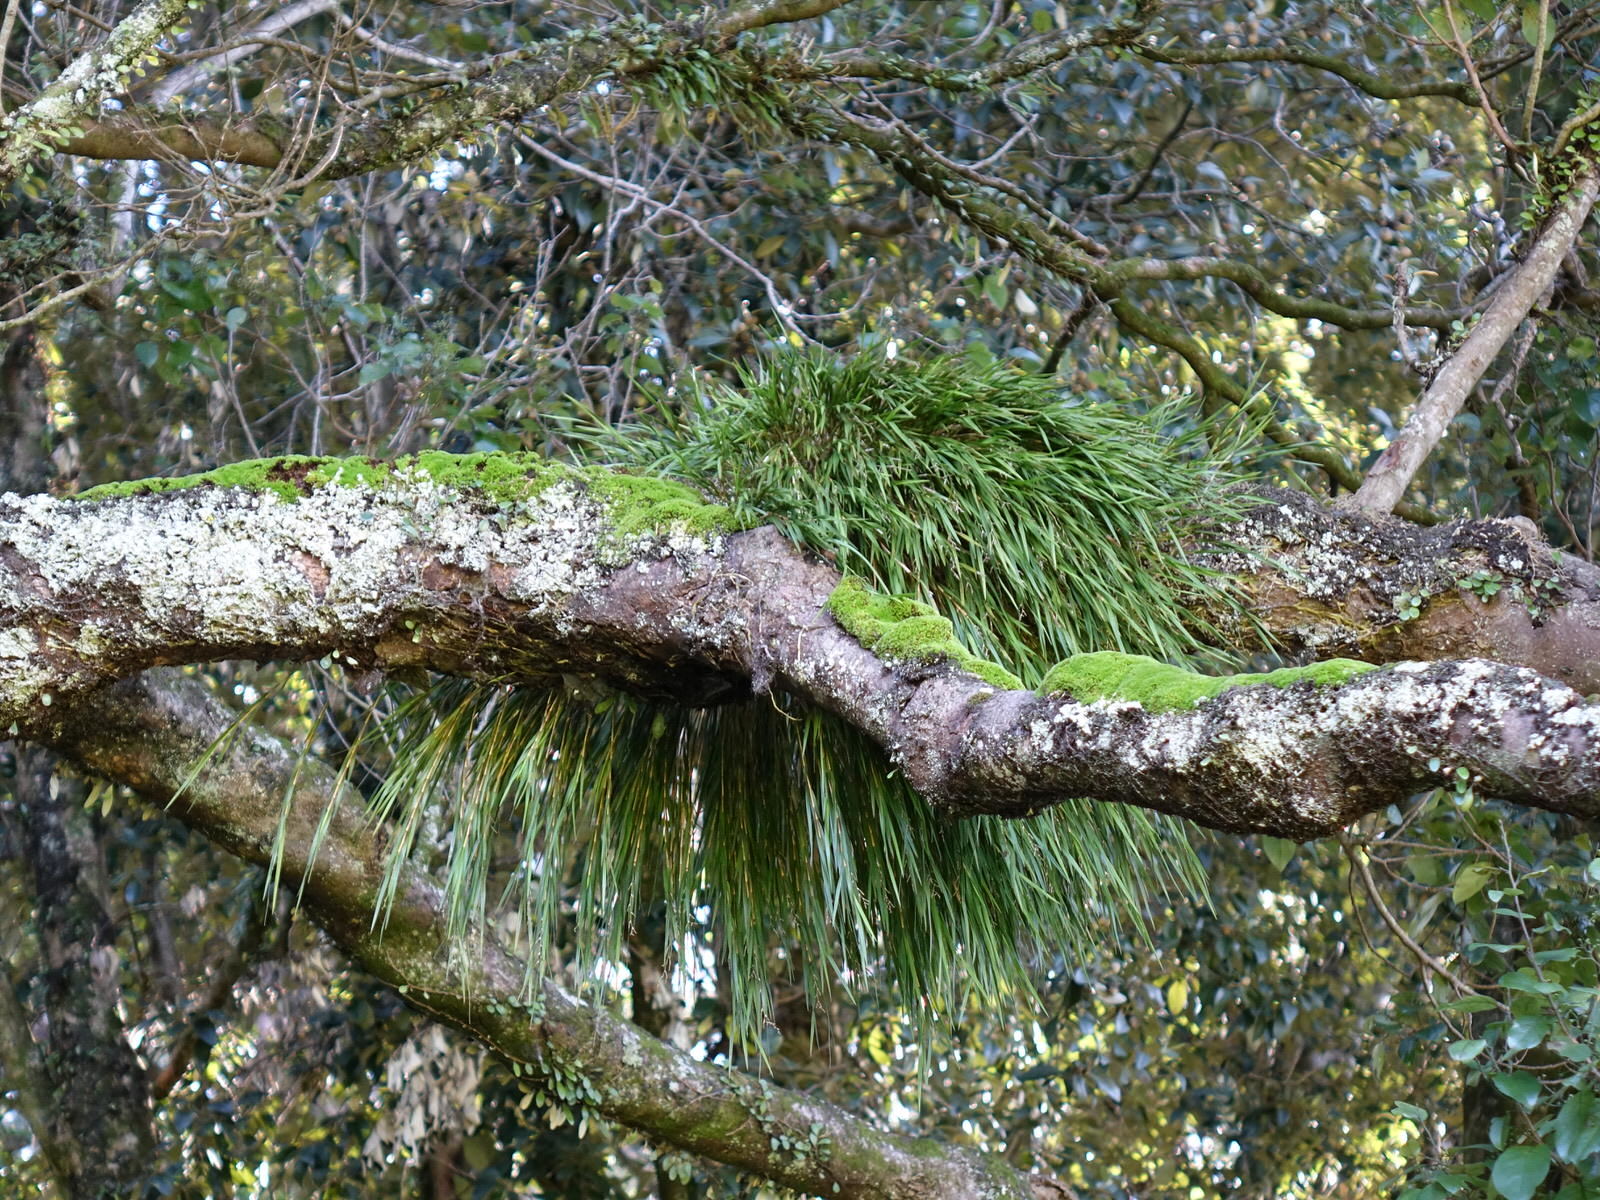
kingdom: Plantae
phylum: Tracheophyta
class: Liliopsida
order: Asparagales
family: Orchidaceae
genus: Earina
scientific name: Earina mucronata
